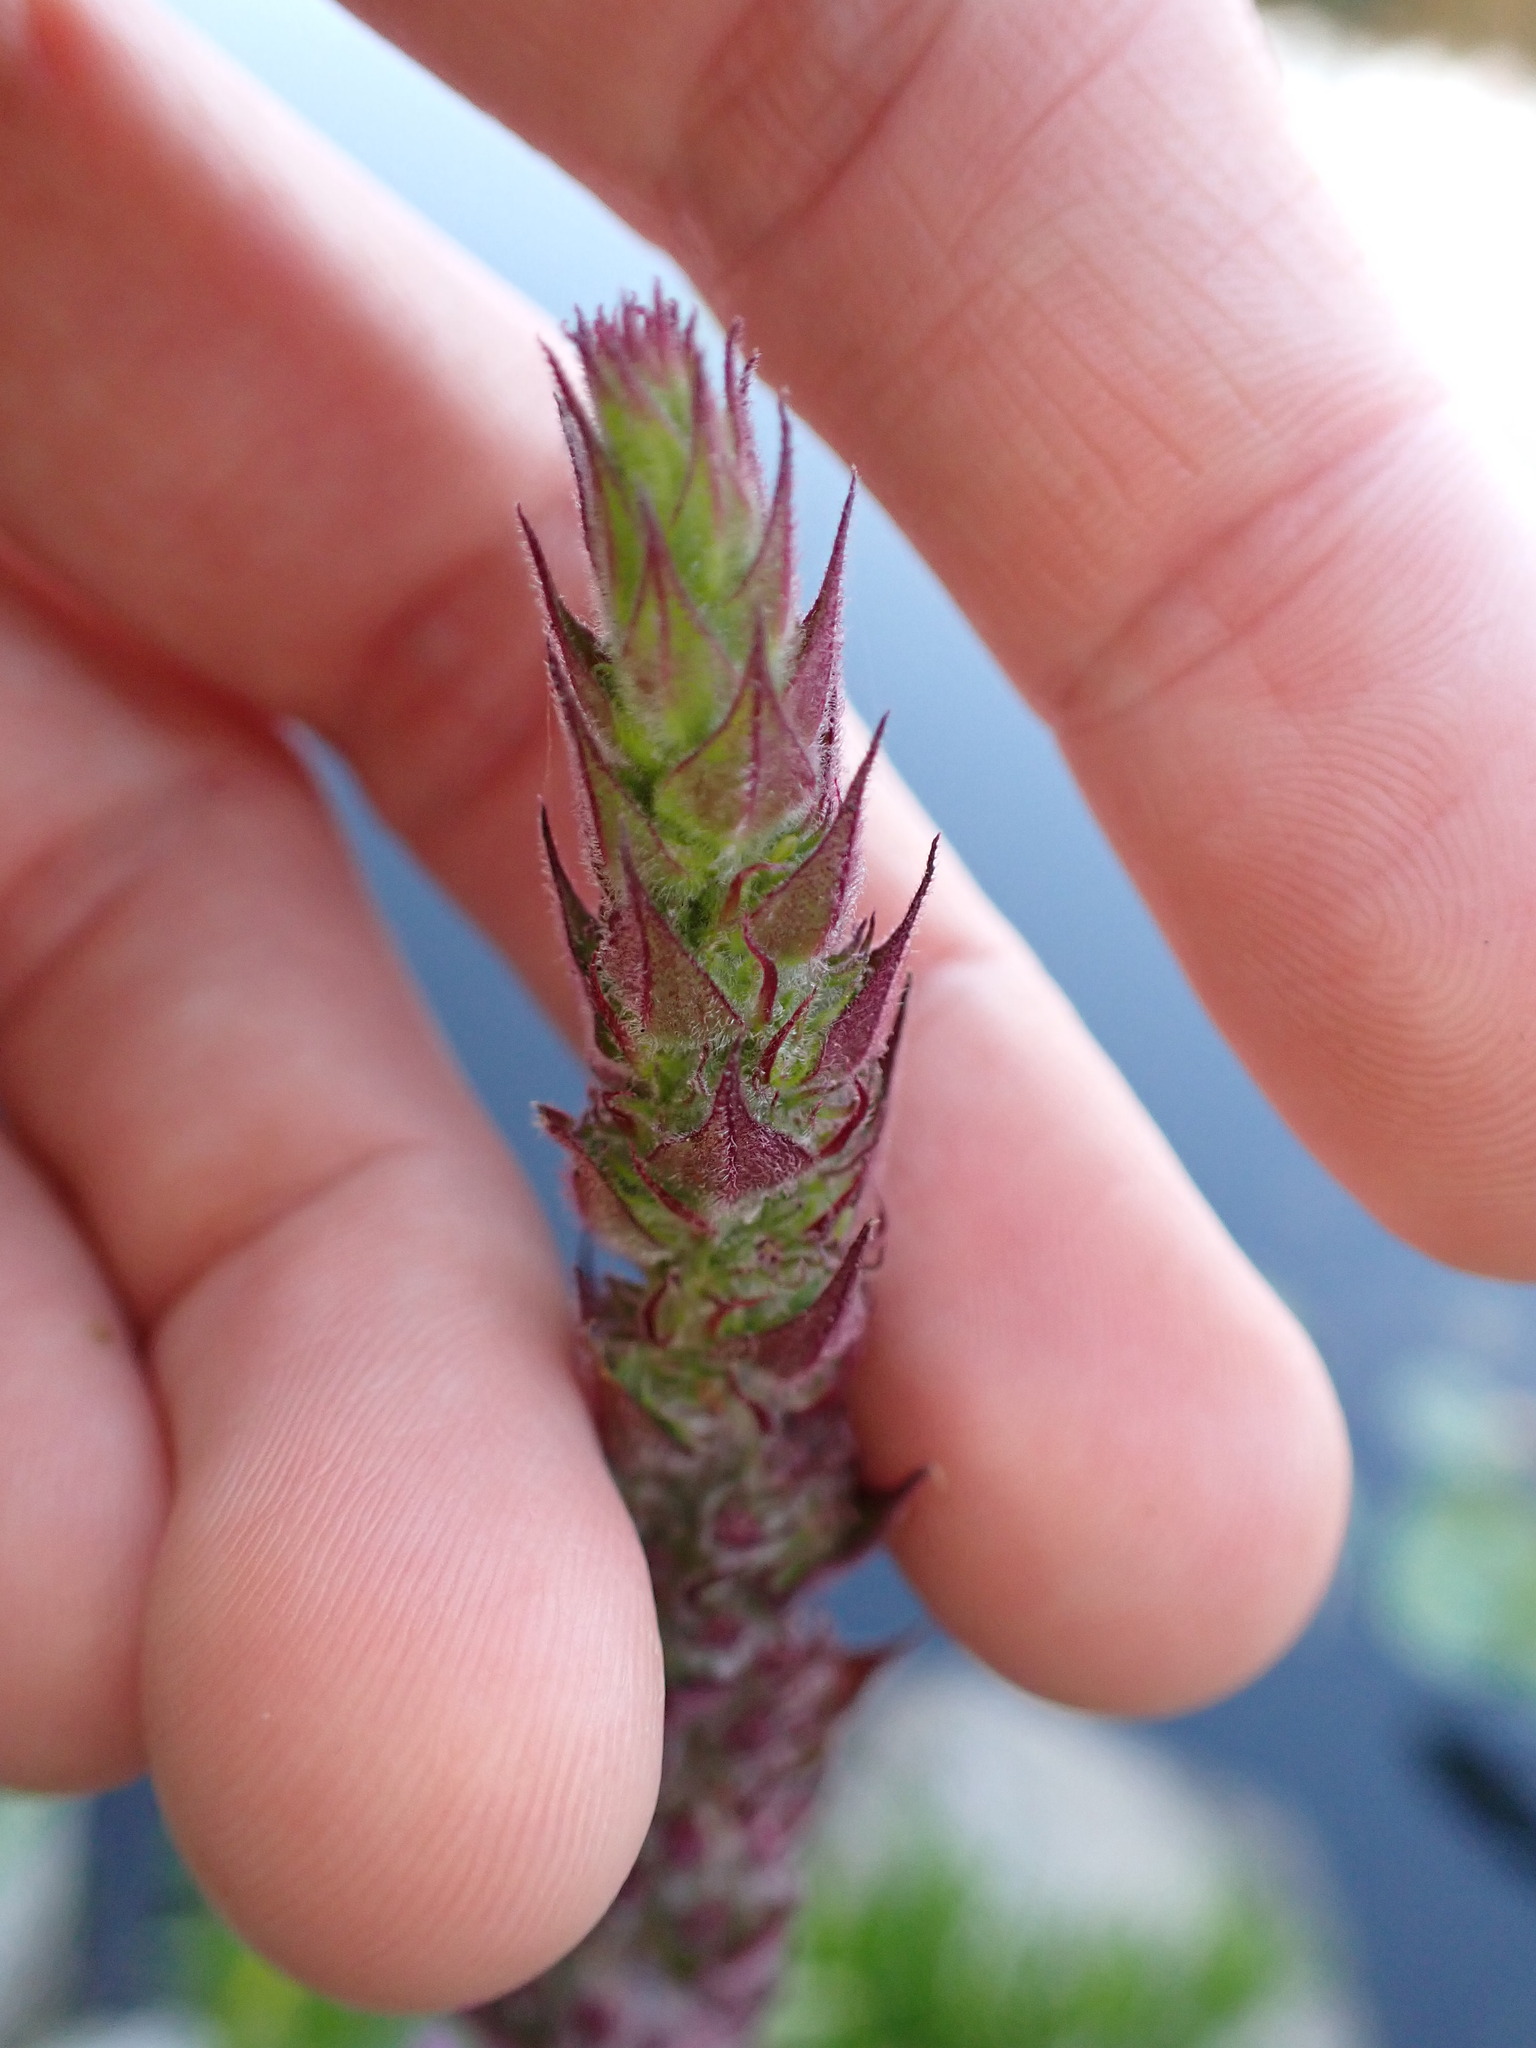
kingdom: Plantae
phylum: Tracheophyta
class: Magnoliopsida
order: Myrtales
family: Lythraceae
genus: Lythrum
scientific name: Lythrum salicaria
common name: Purple loosestrife
